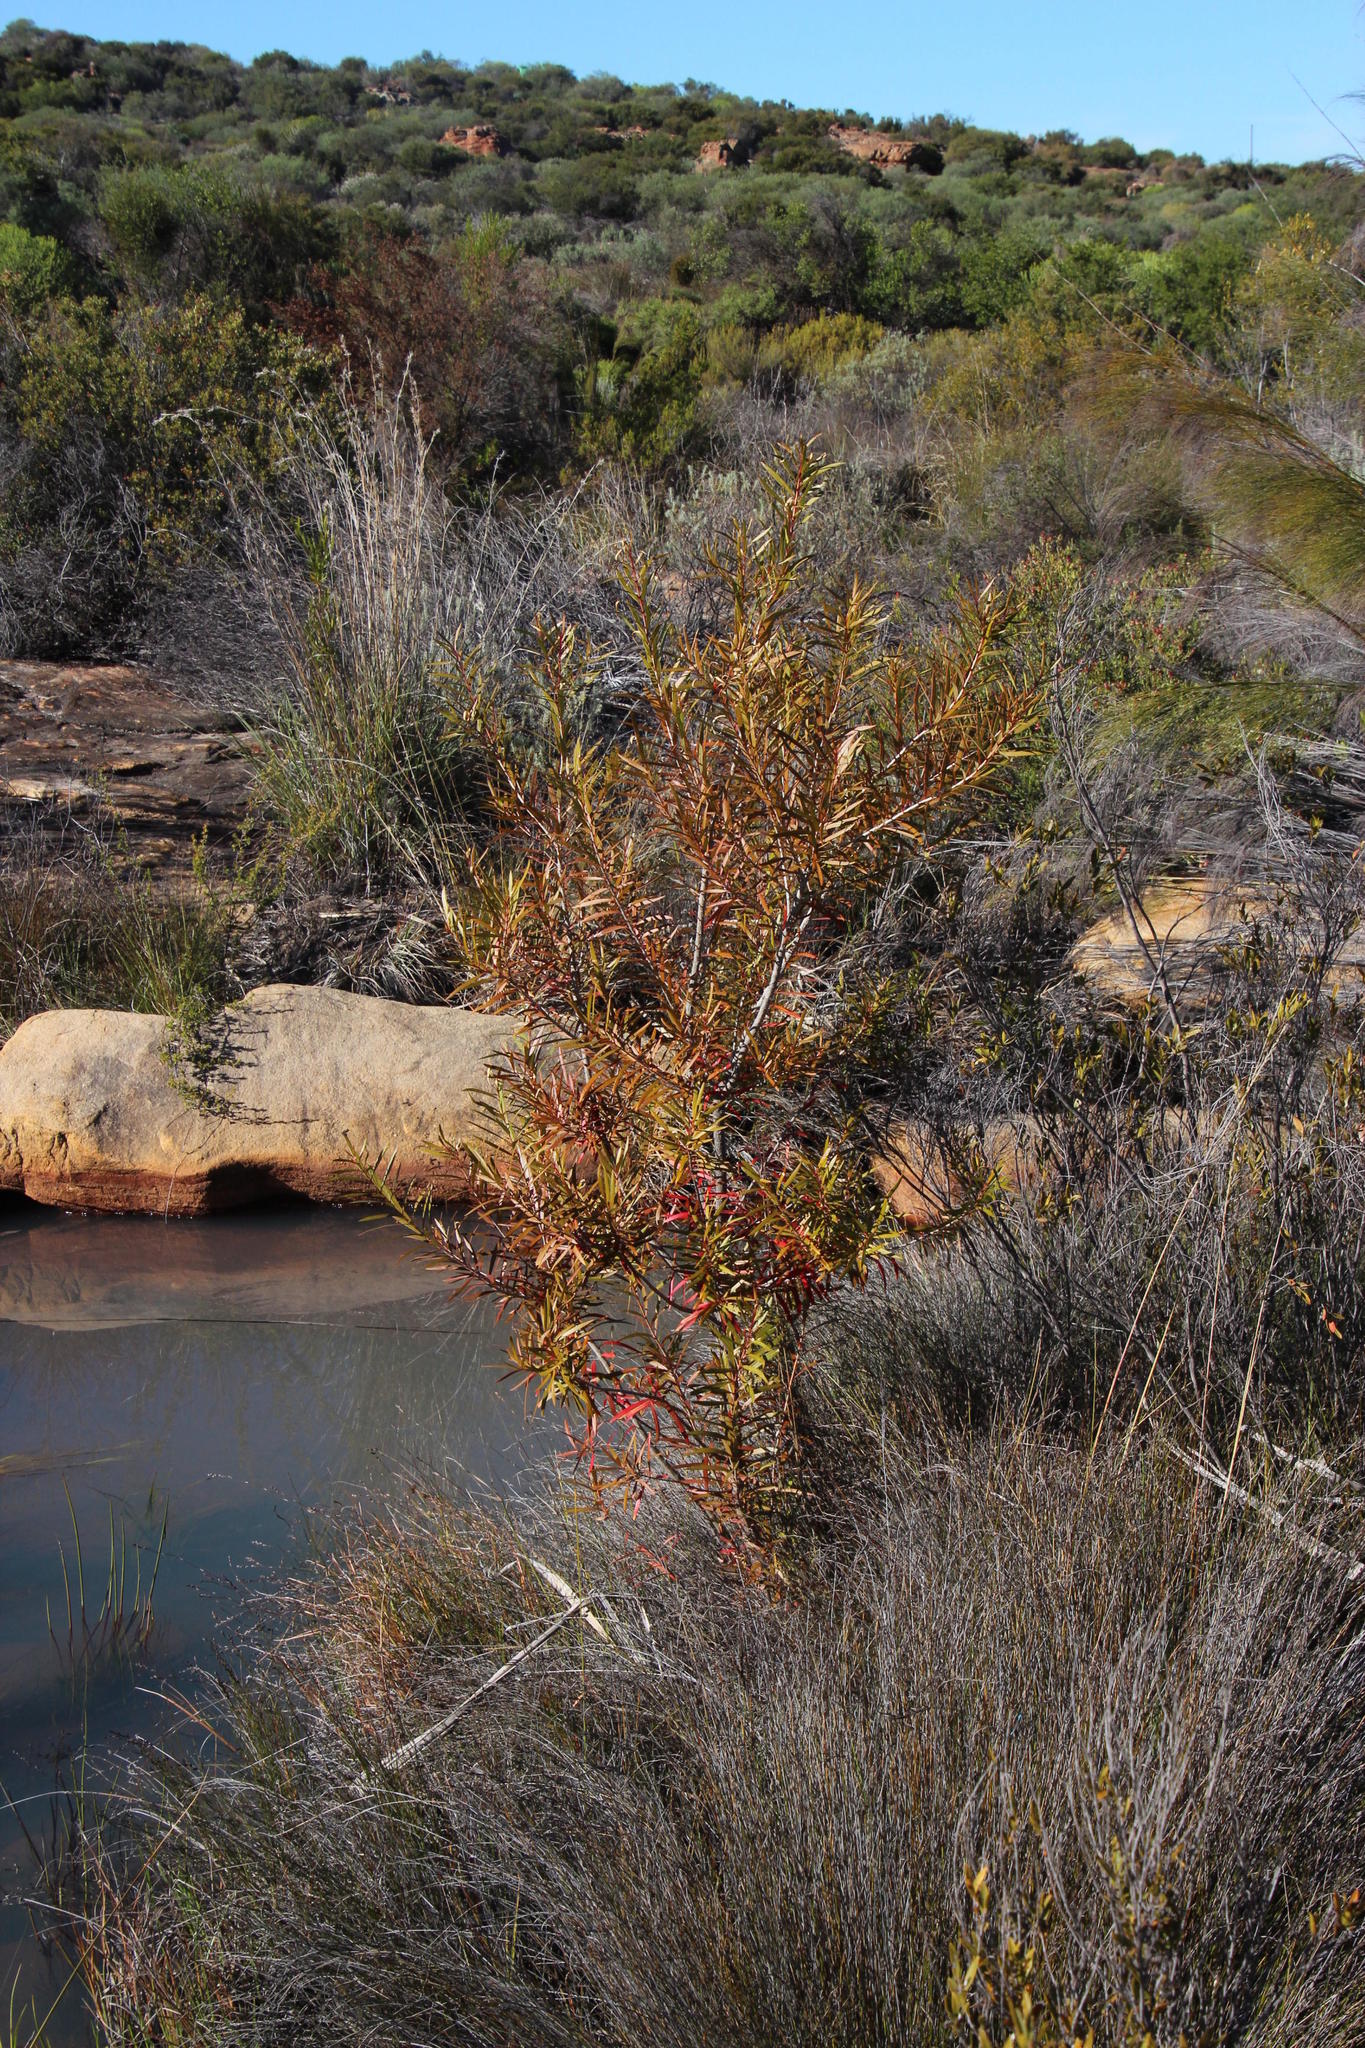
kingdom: Plantae
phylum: Tracheophyta
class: Magnoliopsida
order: Myrtales
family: Myrtaceae
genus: Callistemon
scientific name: Callistemon lanceolatus
